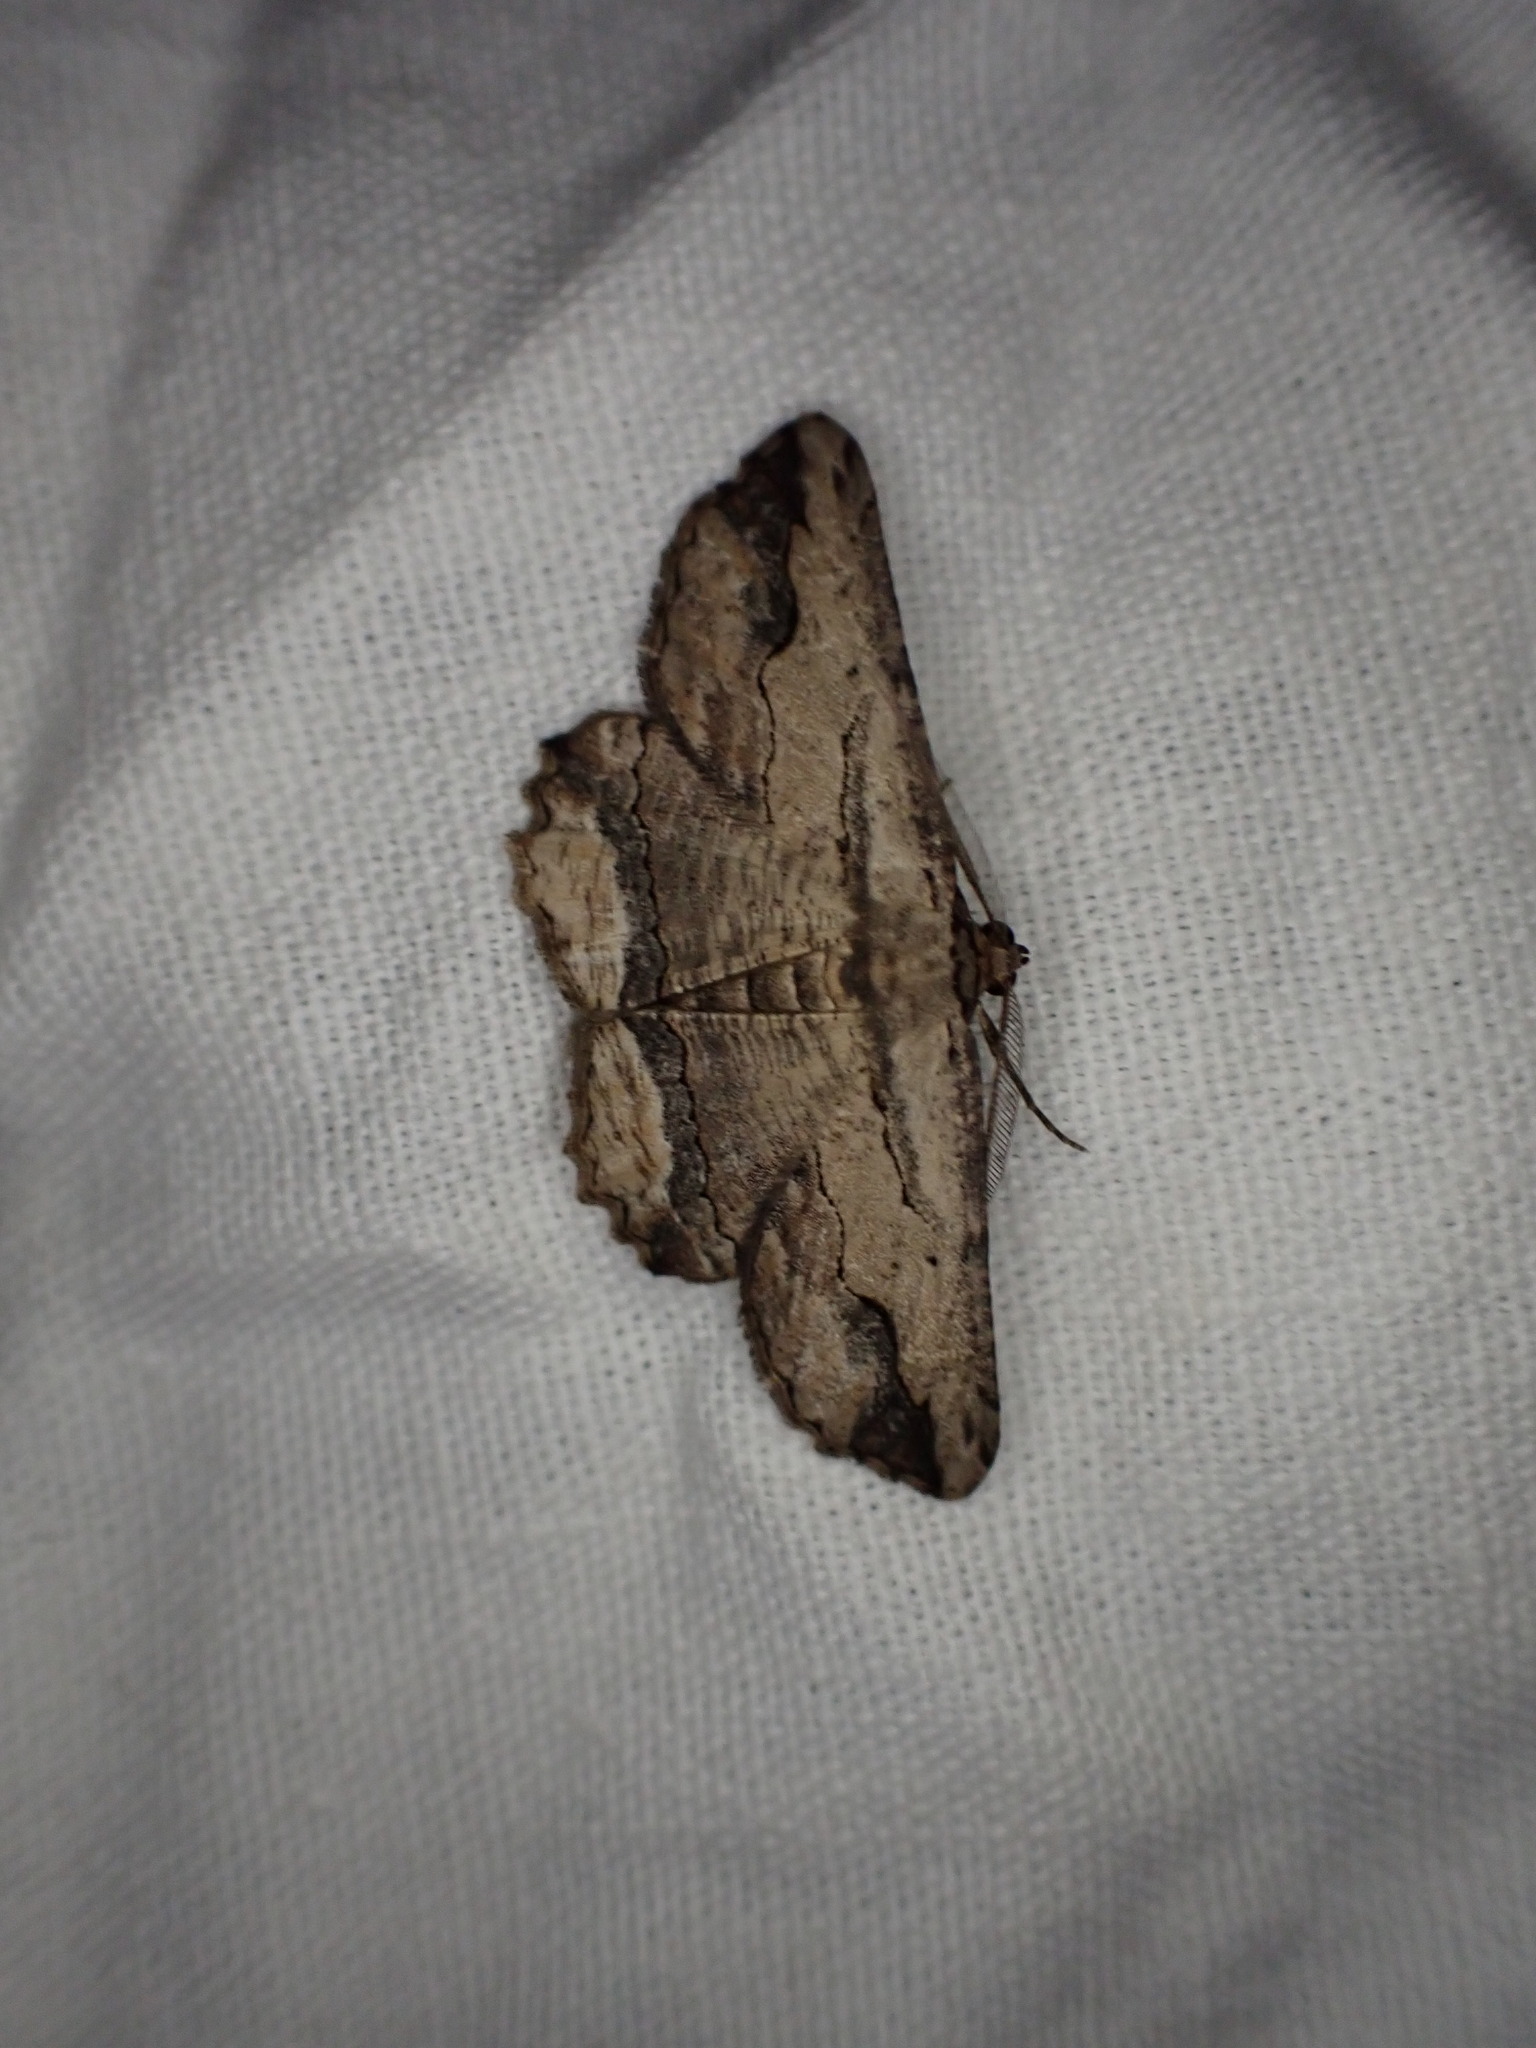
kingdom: Animalia
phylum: Arthropoda
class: Insecta
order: Lepidoptera
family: Geometridae
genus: Menophra
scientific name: Menophra abruptaria
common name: Waved umber
